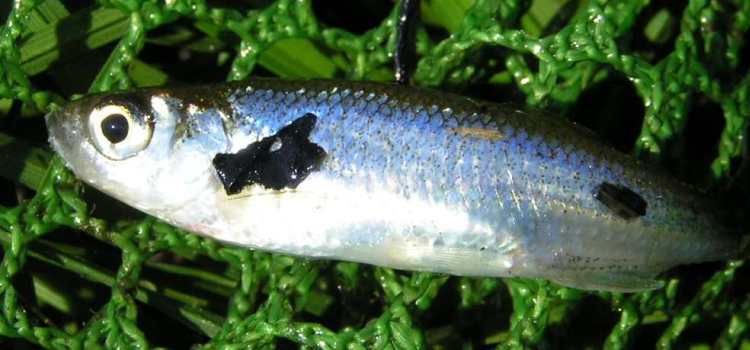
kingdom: Animalia
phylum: Chordata
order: Cypriniformes
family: Cyprinidae
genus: Leucaspius
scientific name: Leucaspius delineatus
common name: Sunbleak
